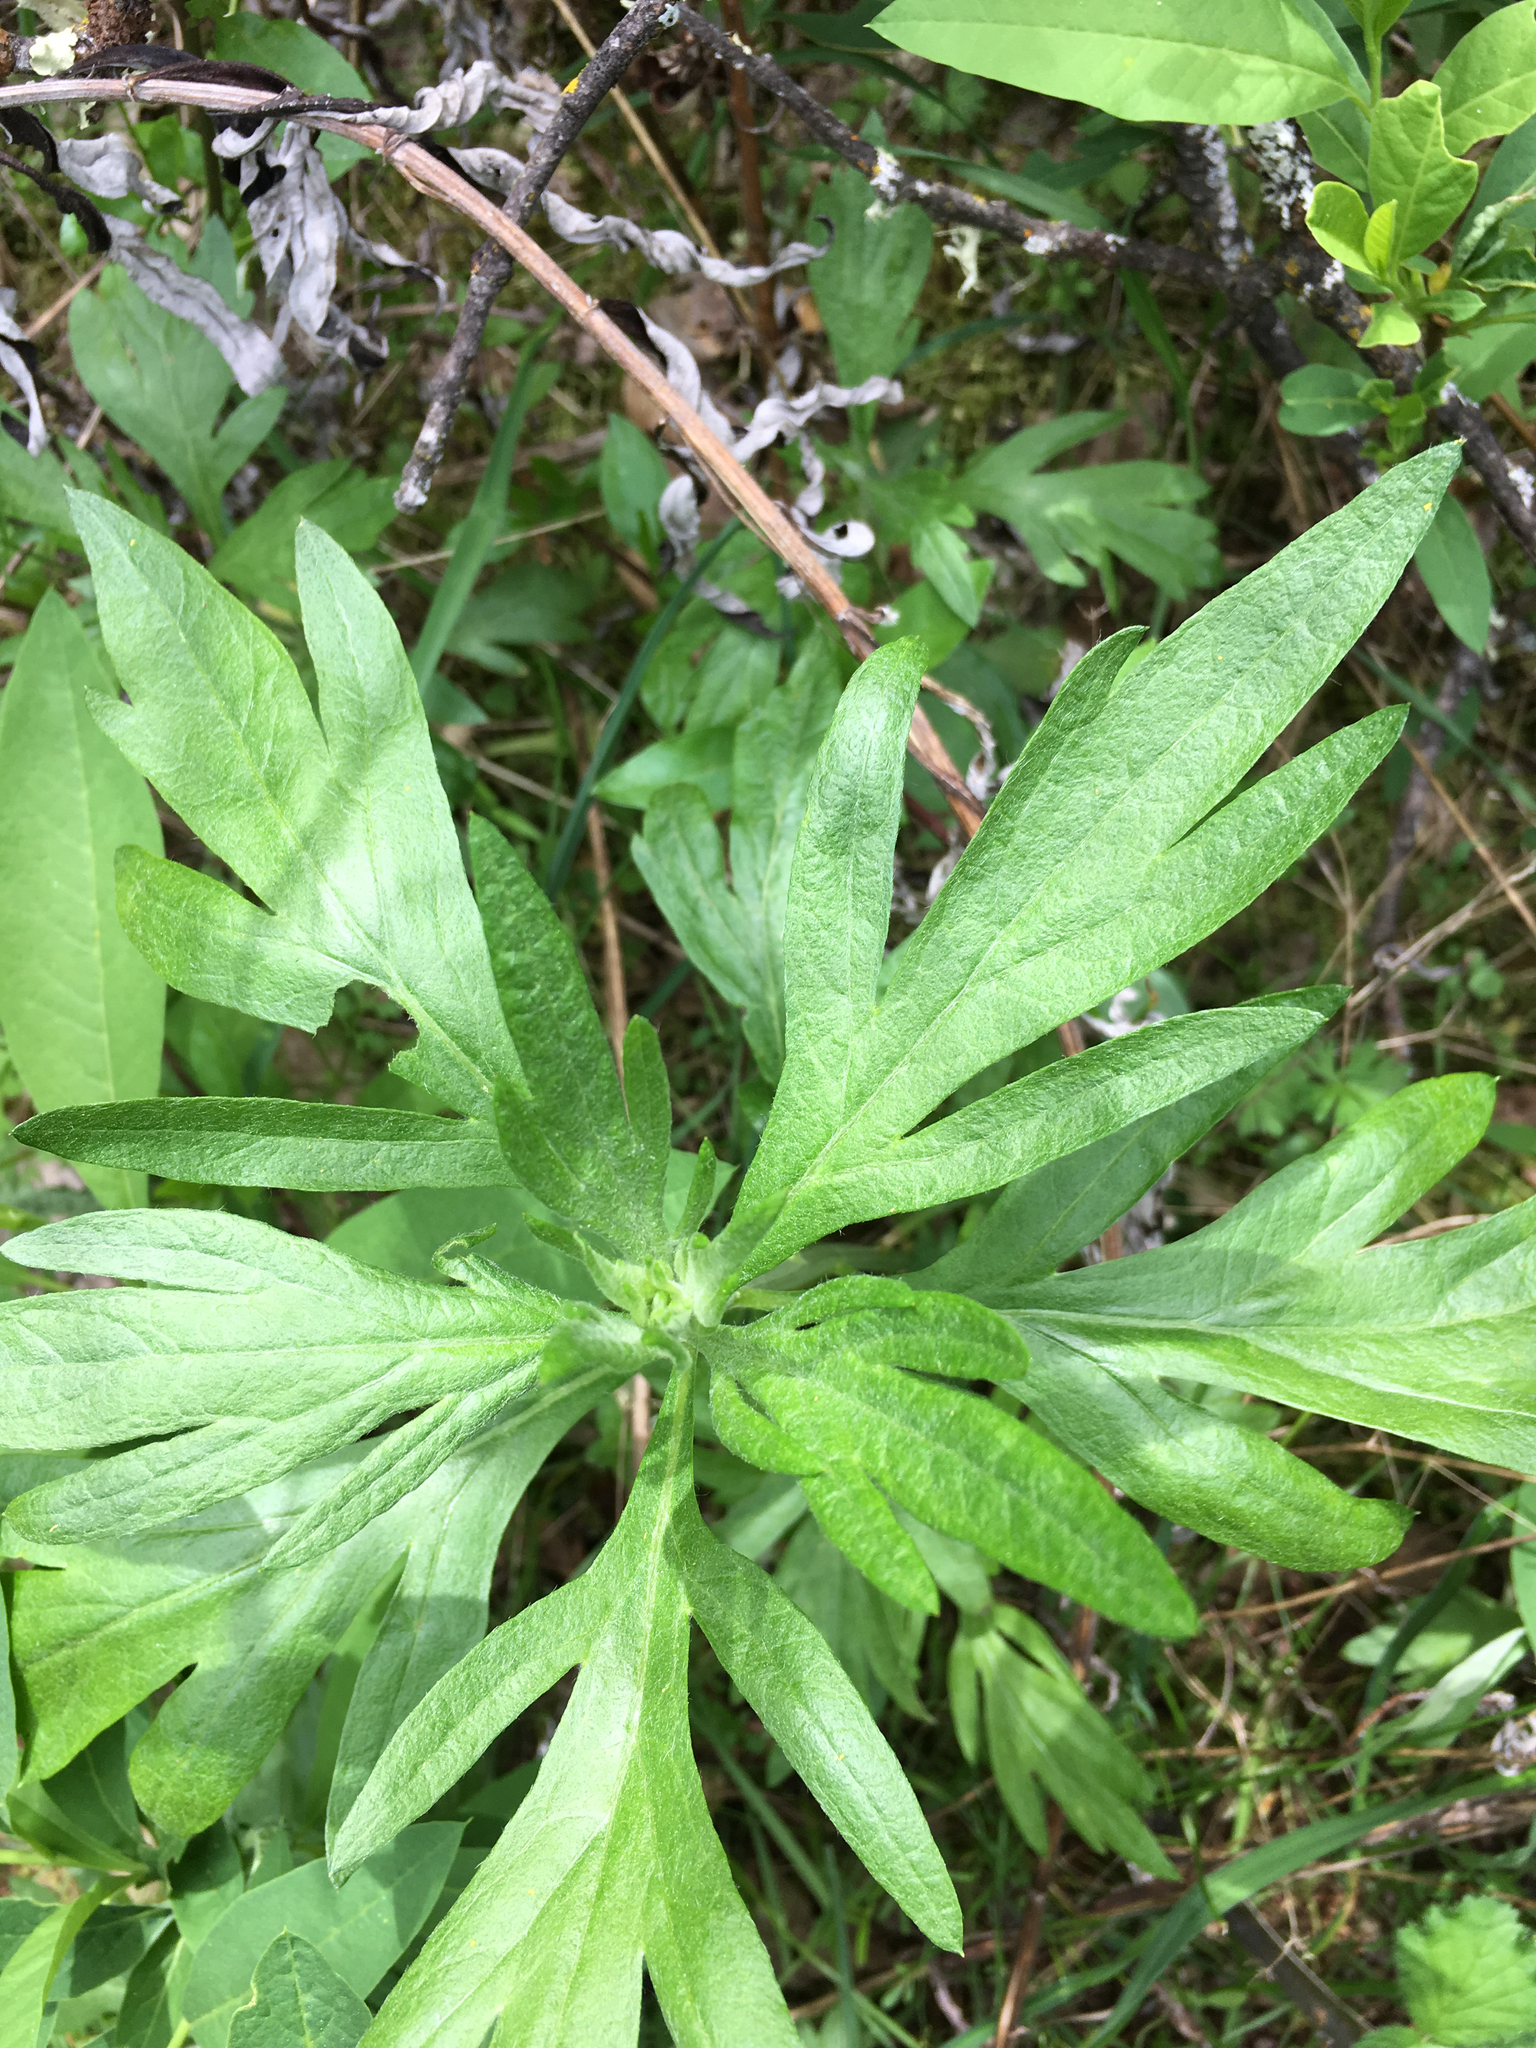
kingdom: Plantae
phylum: Tracheophyta
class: Magnoliopsida
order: Asterales
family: Asteraceae
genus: Artemisia
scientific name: Artemisia douglasiana
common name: Northwest mugwort
